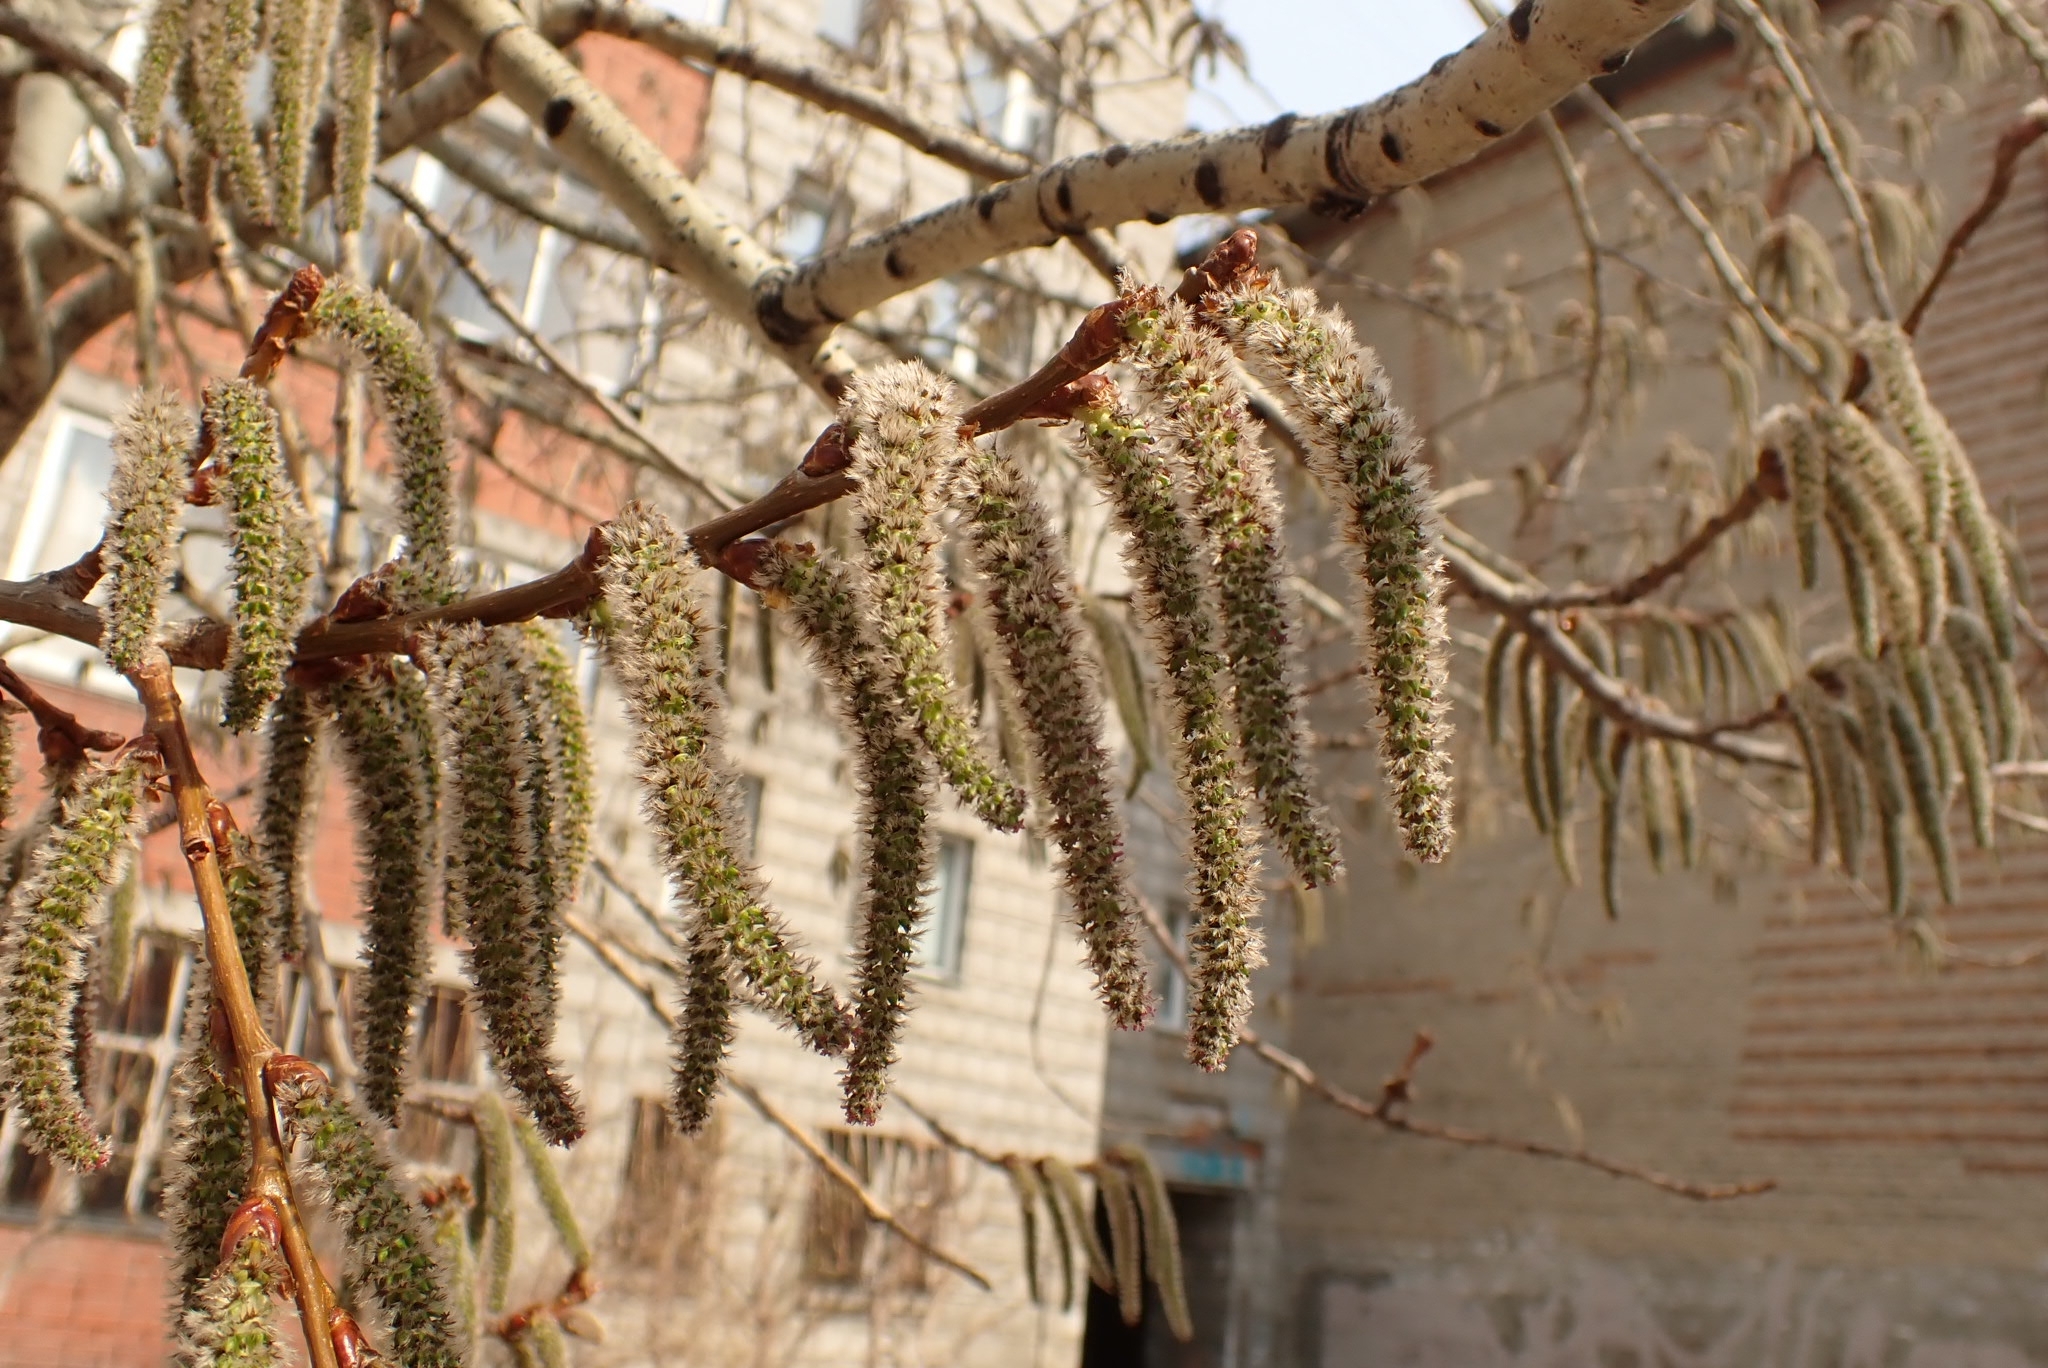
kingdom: Plantae
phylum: Tracheophyta
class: Magnoliopsida
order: Malpighiales
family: Salicaceae
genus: Populus
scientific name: Populus tremula
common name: European aspen
